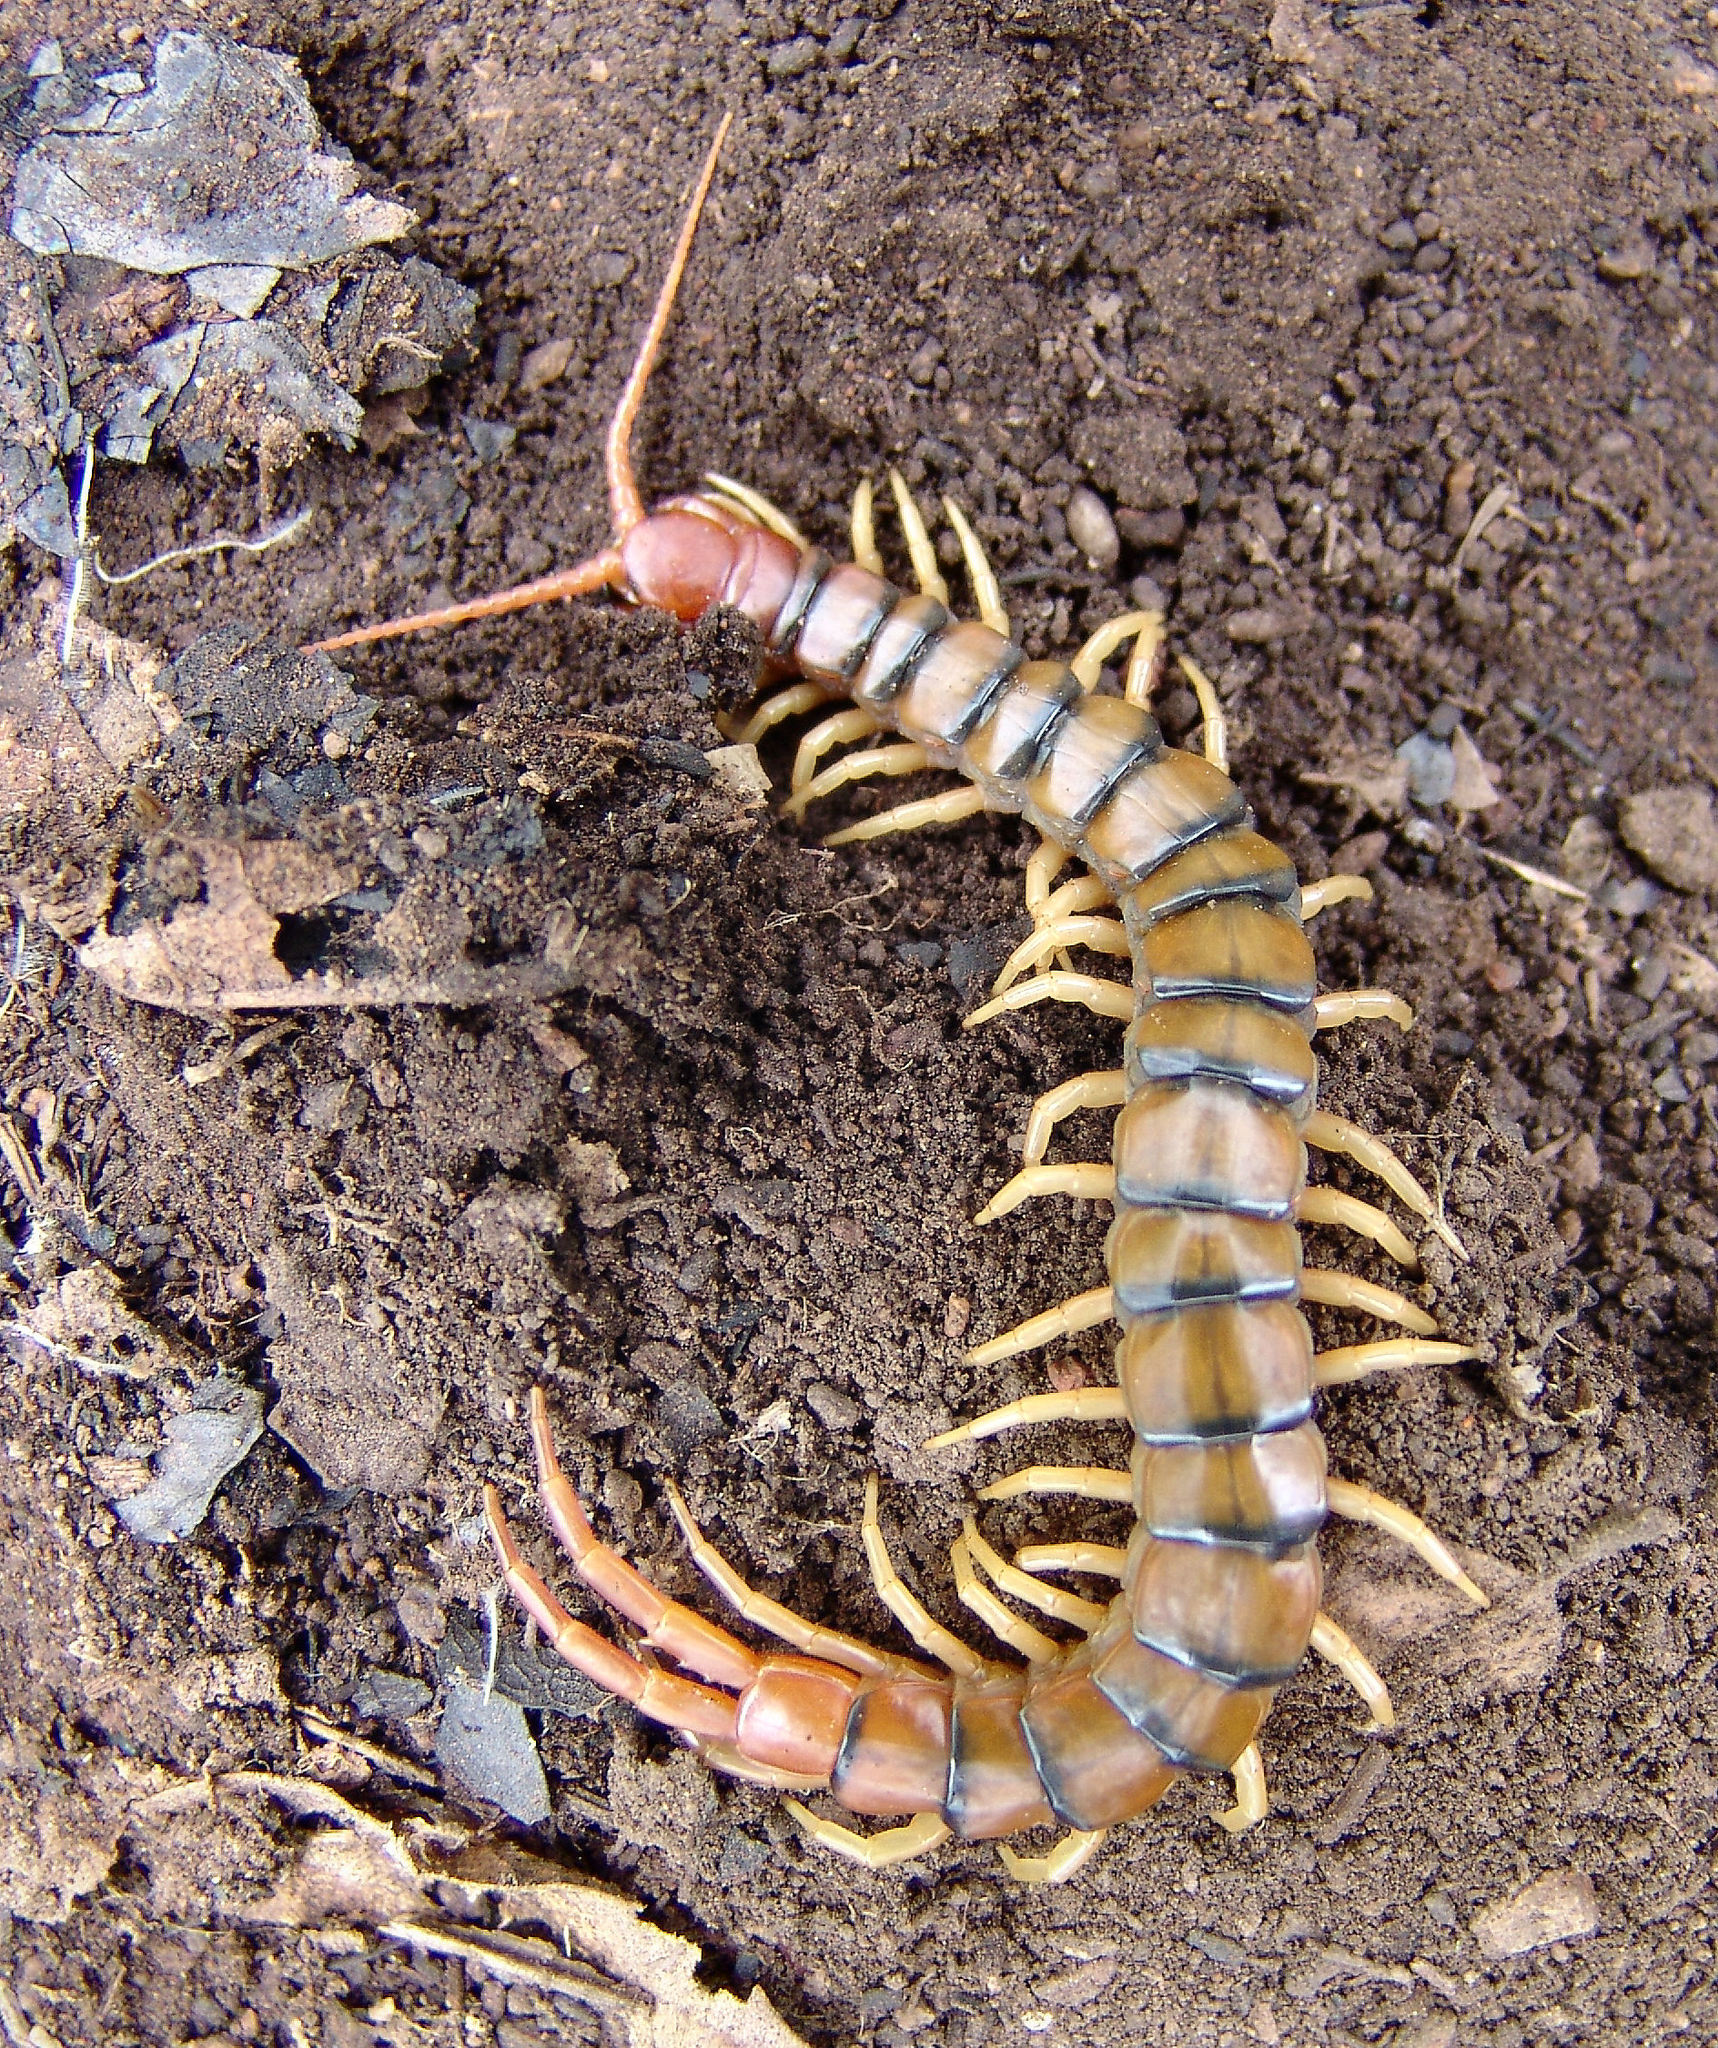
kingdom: Animalia
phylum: Arthropoda
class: Chilopoda
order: Scolopendromorpha
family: Scolopendridae
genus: Scolopendra
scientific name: Scolopendra polymorpha
